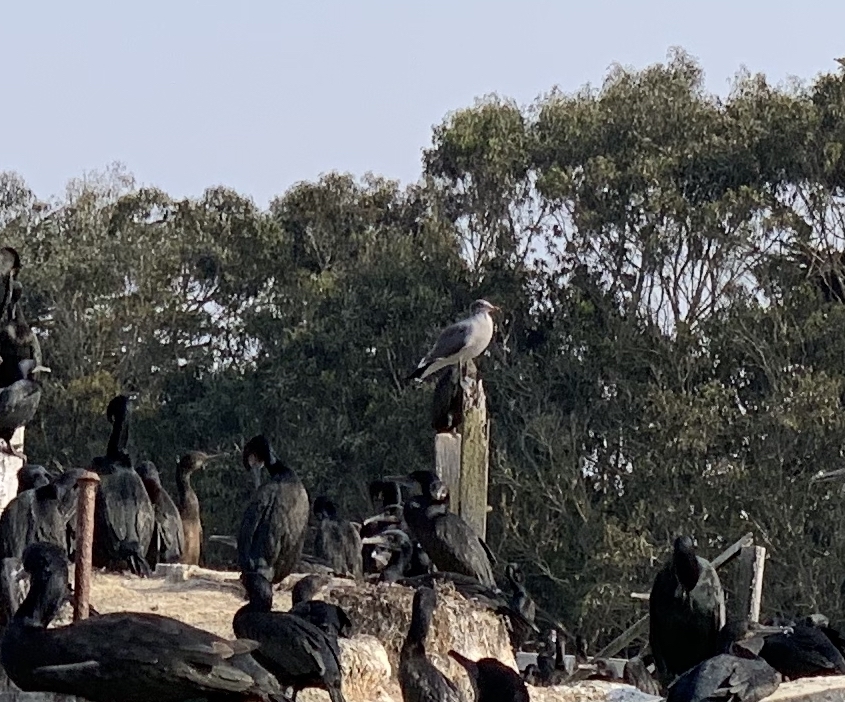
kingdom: Animalia
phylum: Chordata
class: Aves
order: Charadriiformes
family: Laridae
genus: Larus
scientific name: Larus
